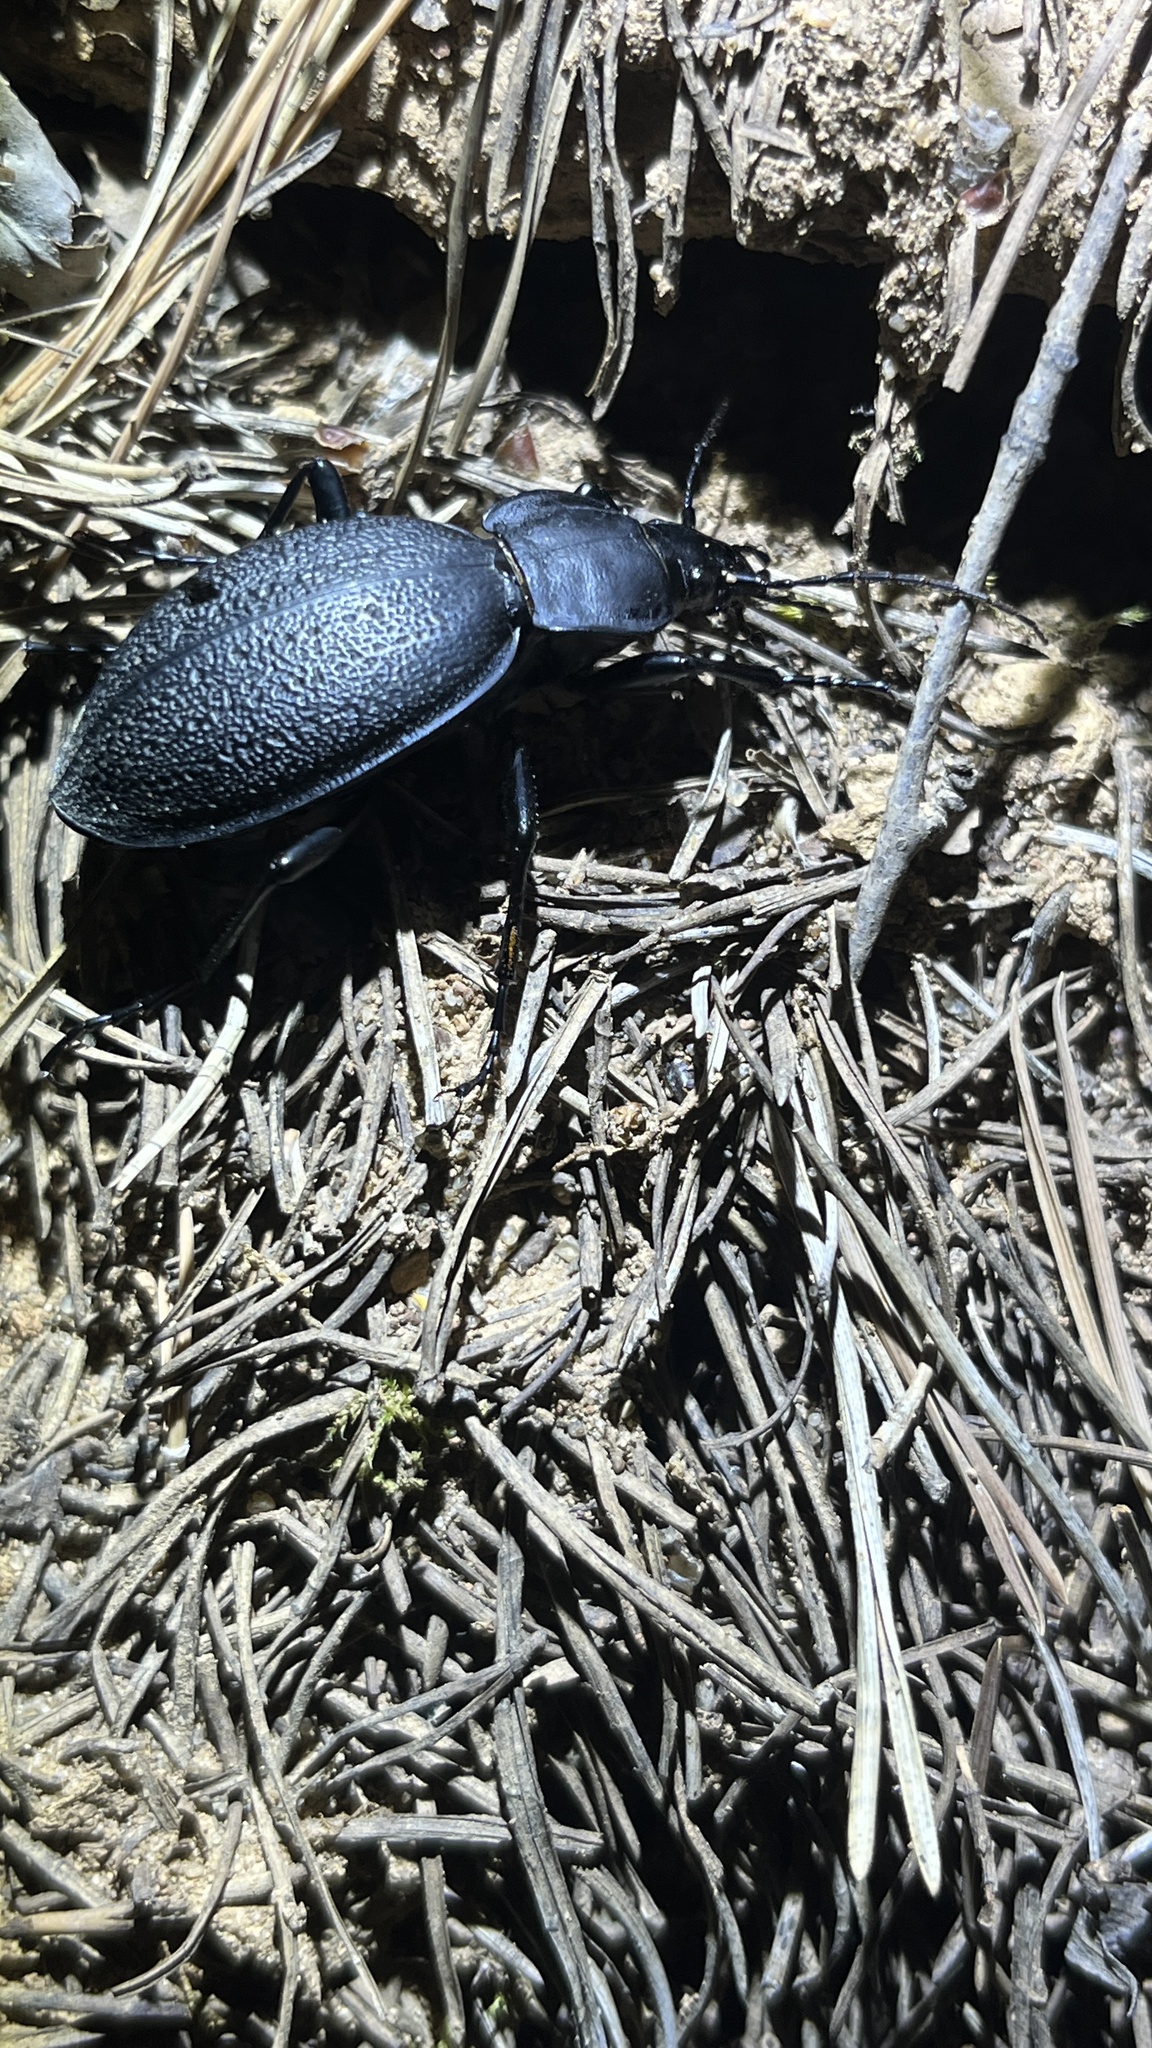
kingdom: Animalia
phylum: Arthropoda
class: Insecta
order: Coleoptera
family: Carabidae
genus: Carabus
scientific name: Carabus coriaceus
